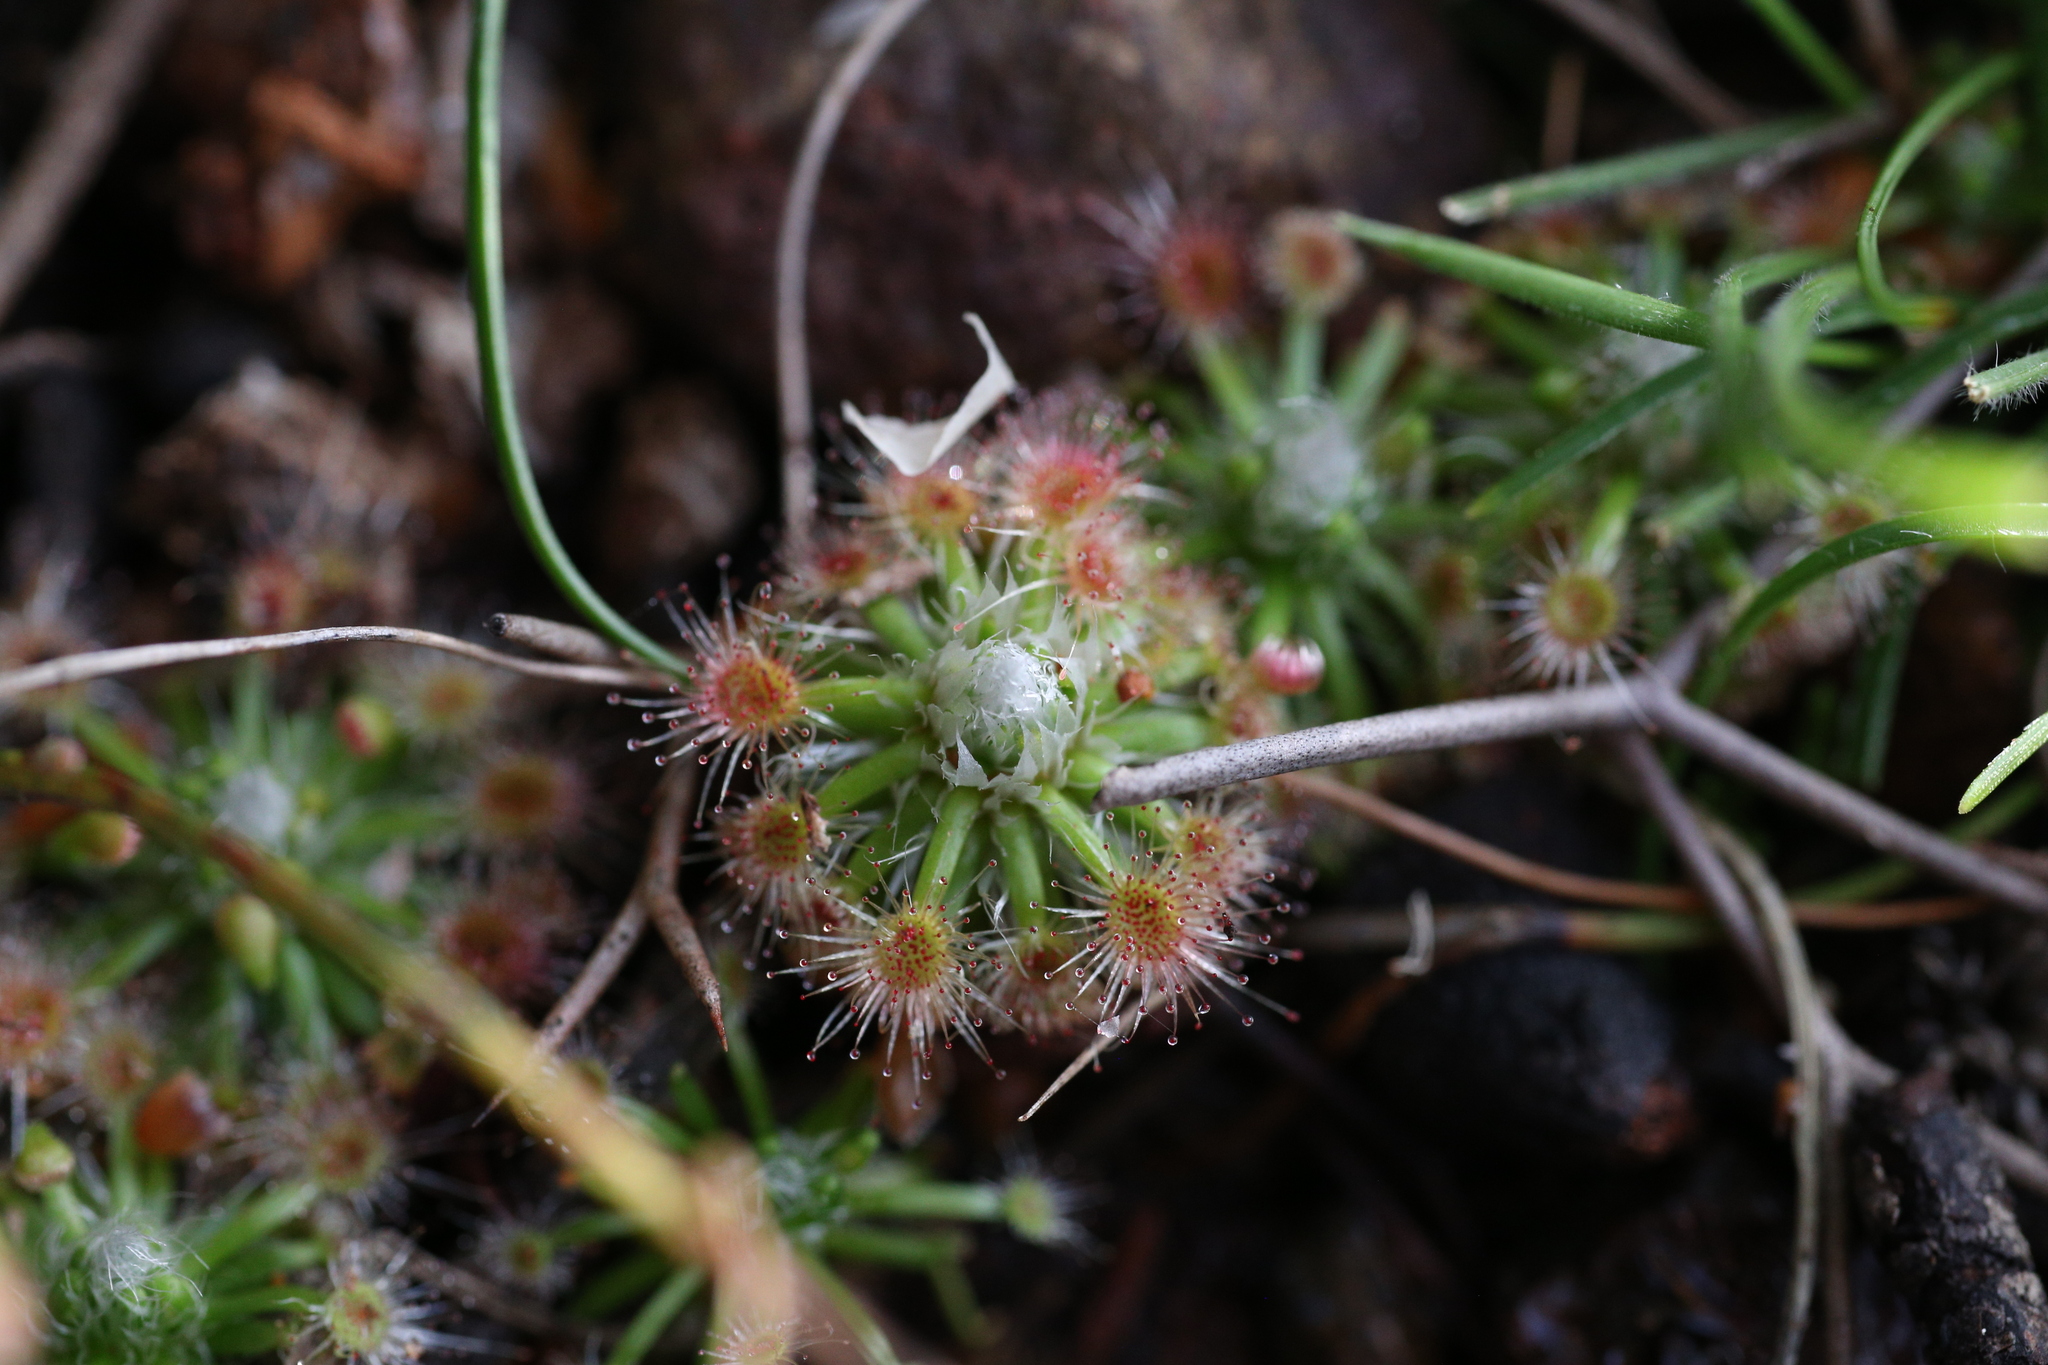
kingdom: Plantae
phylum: Tracheophyta
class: Magnoliopsida
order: Caryophyllales
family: Droseraceae
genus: Drosera
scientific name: Drosera hyperostigma
